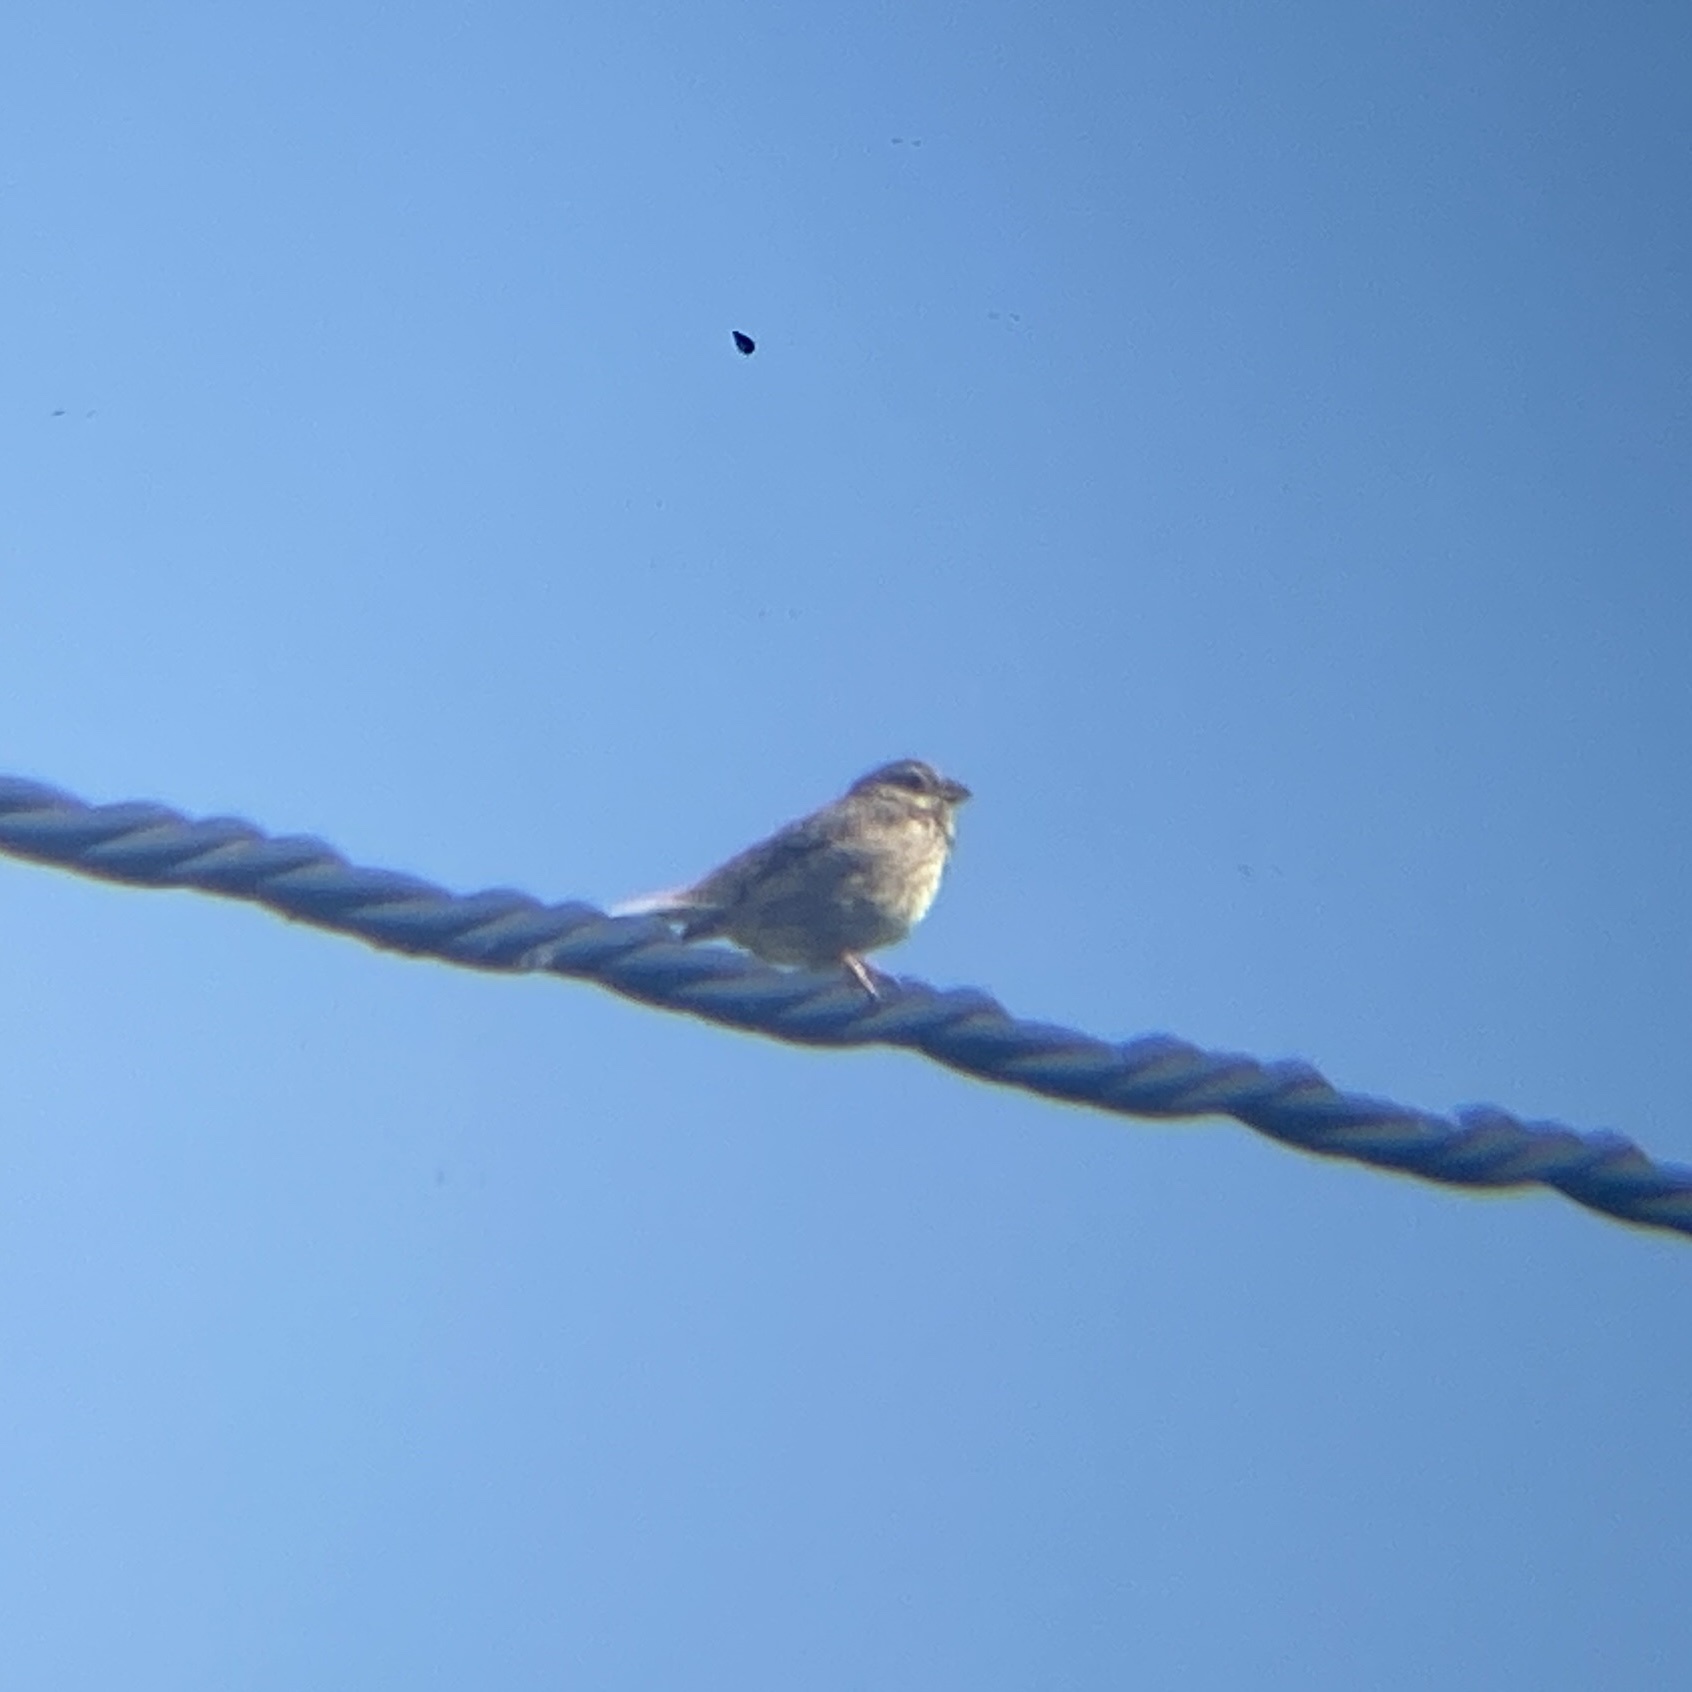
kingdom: Animalia
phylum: Chordata
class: Aves
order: Passeriformes
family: Emberizidae
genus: Emberiza
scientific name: Emberiza calandra
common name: Corn bunting
